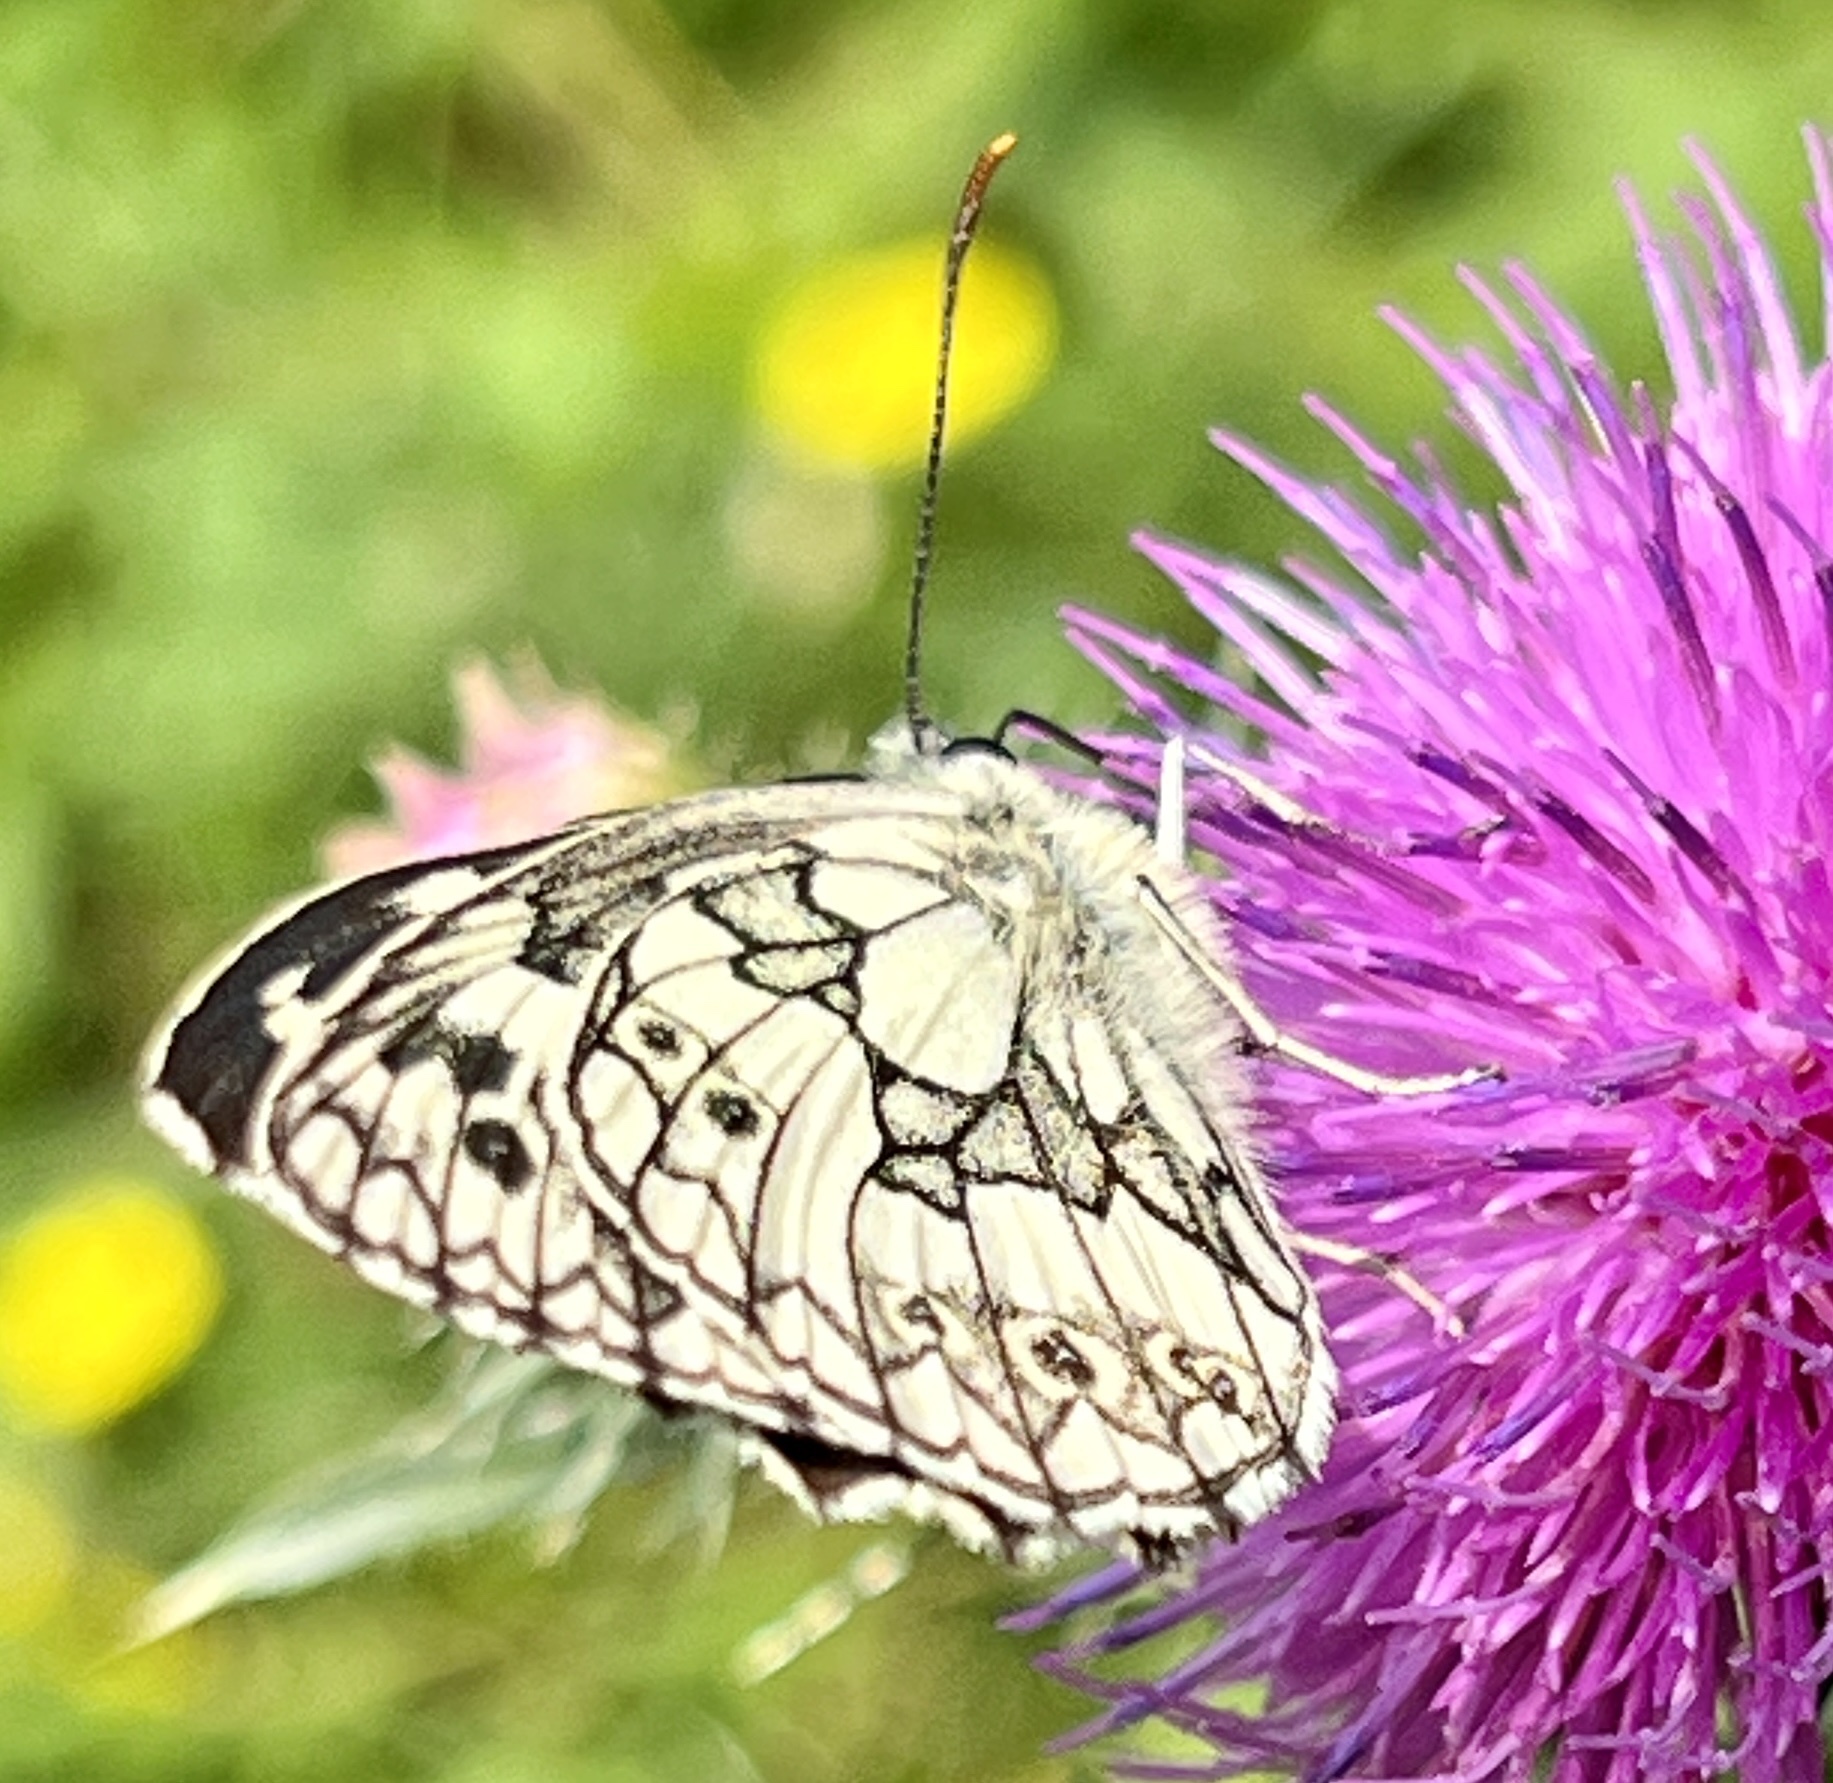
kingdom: Animalia
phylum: Arthropoda
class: Insecta
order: Lepidoptera
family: Nymphalidae
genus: Melanargia
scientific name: Melanargia galathea
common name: Marbled white
